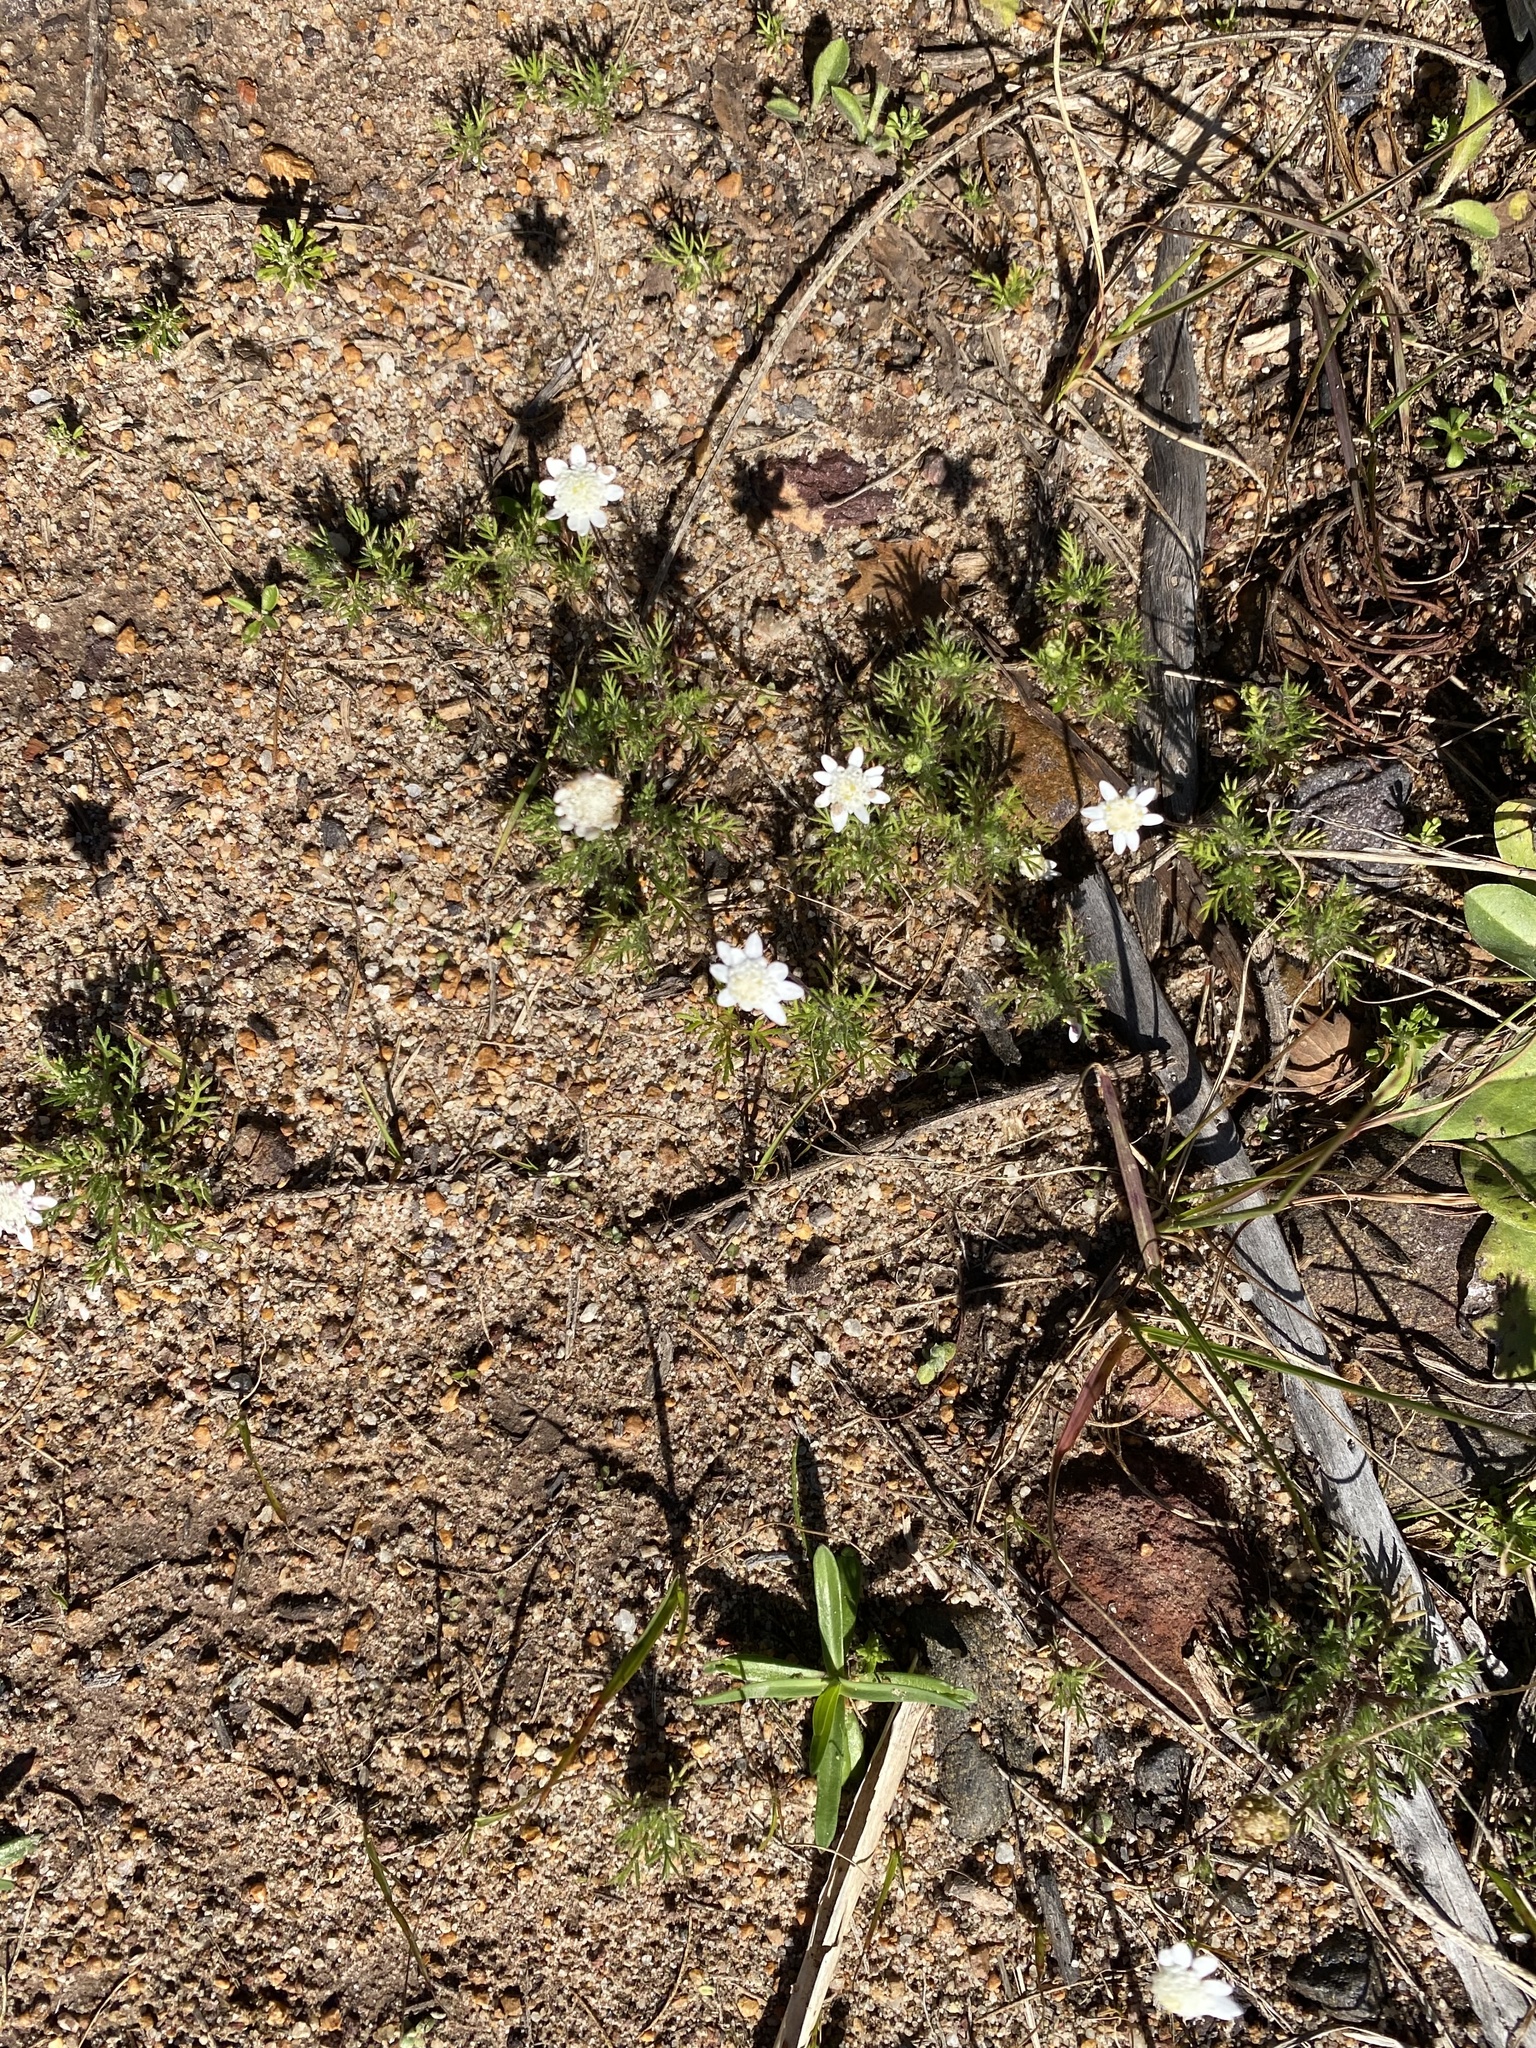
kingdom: Plantae
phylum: Tracheophyta
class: Magnoliopsida
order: Asterales
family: Asteraceae
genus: Cotula
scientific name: Cotula turbinata
